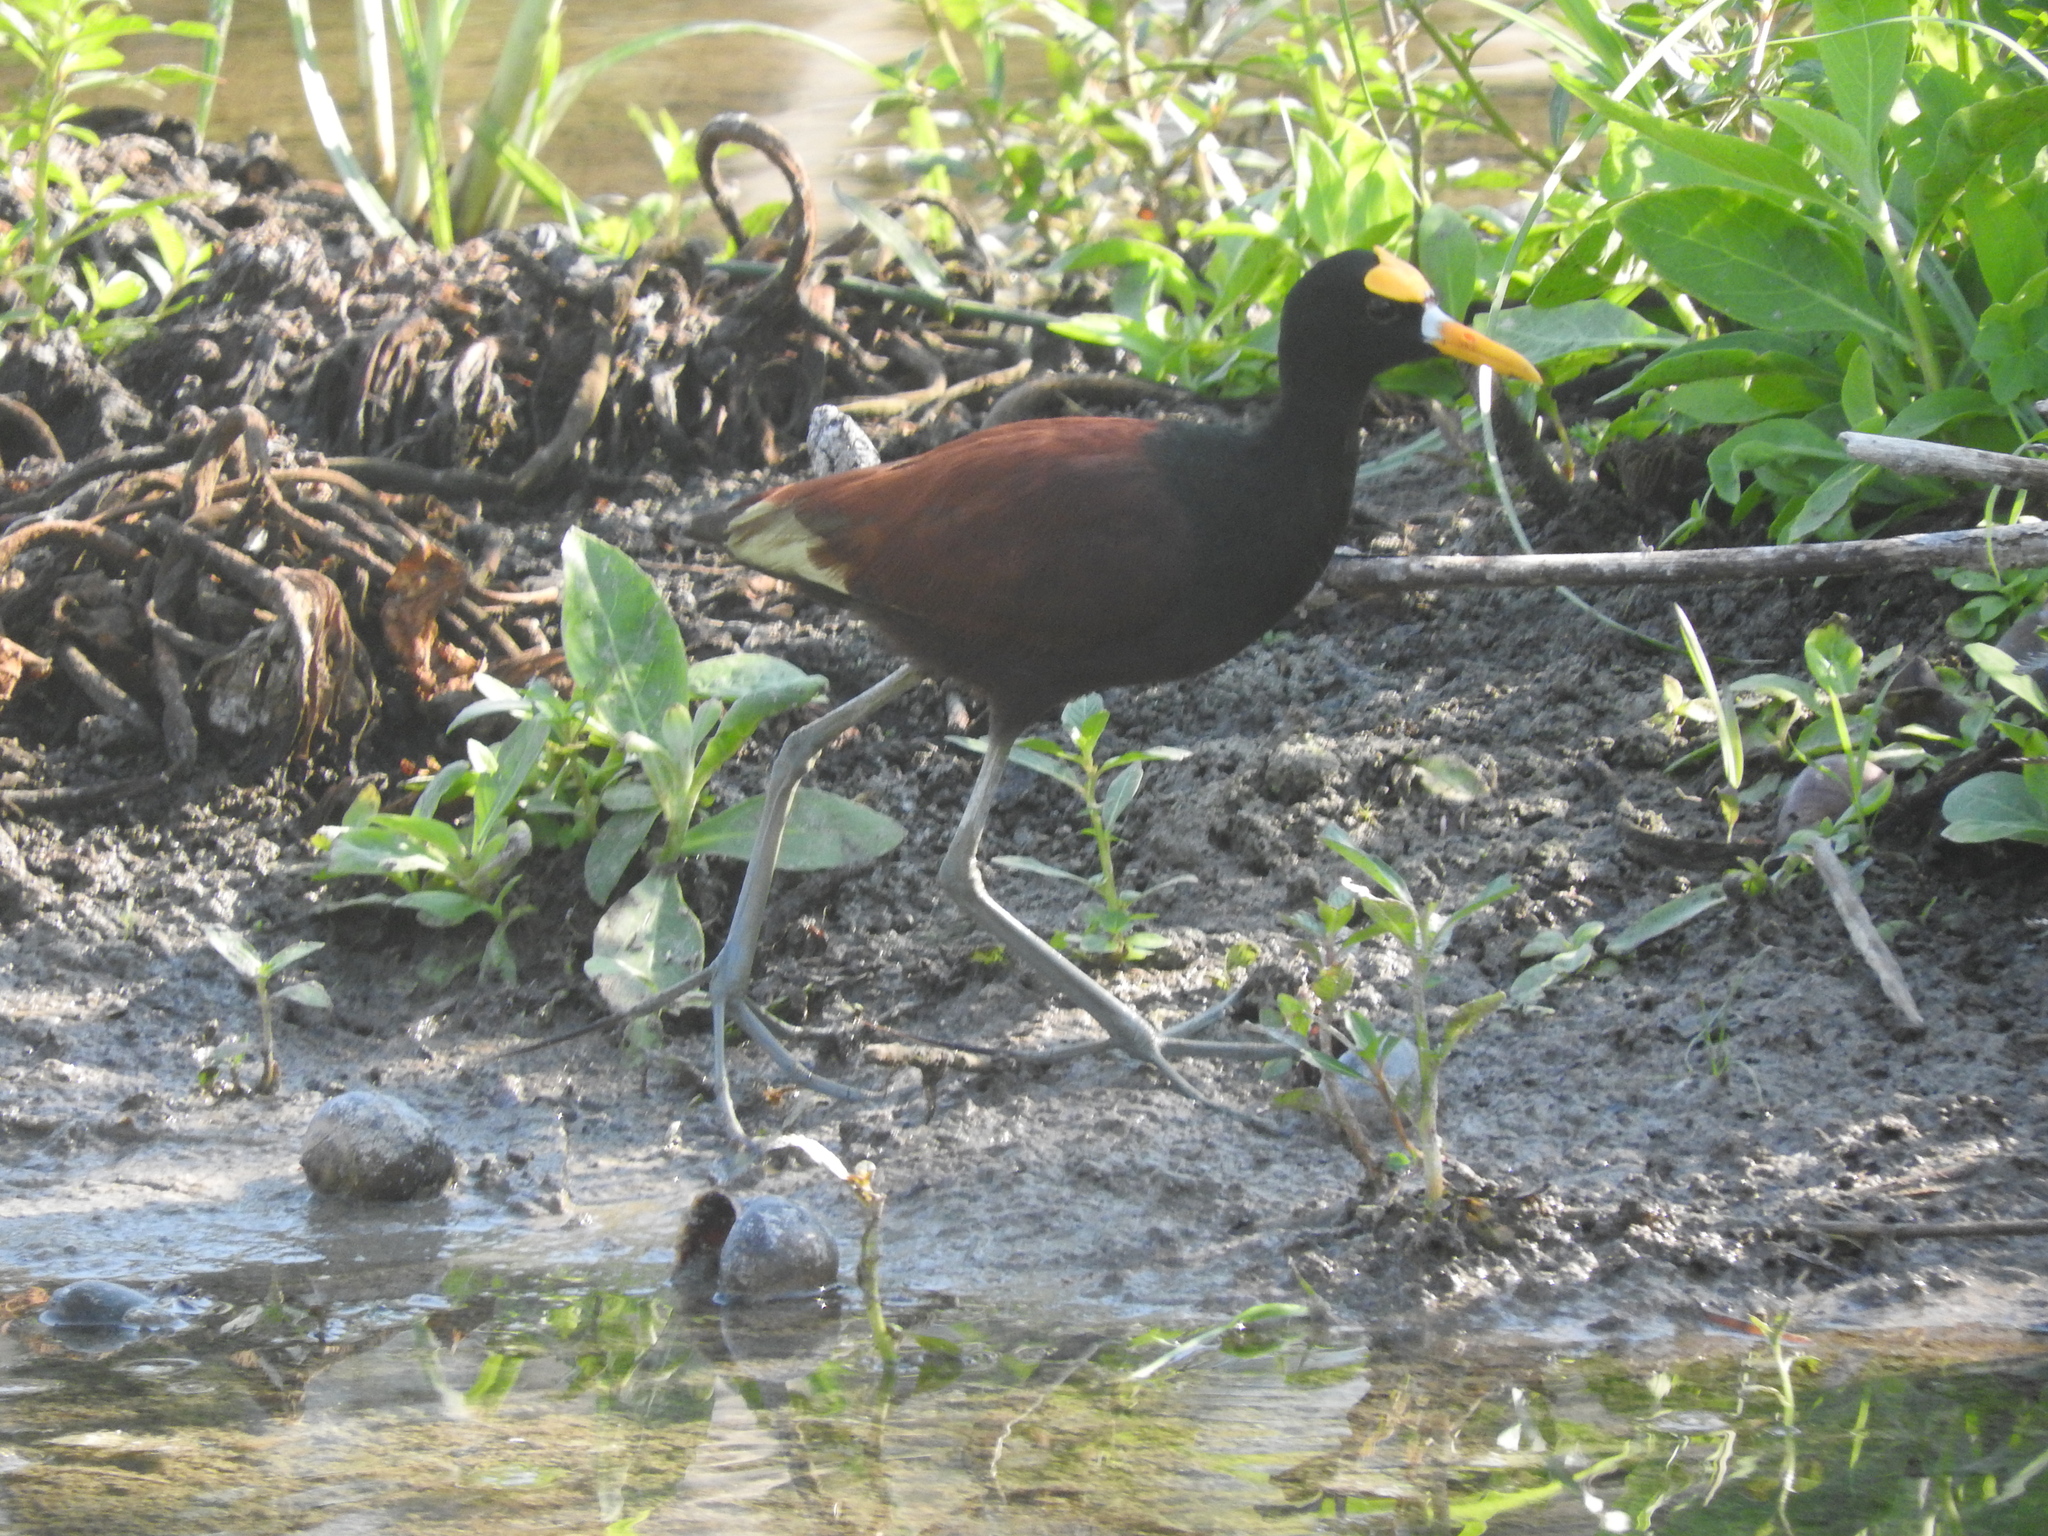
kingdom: Animalia
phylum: Chordata
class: Aves
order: Charadriiformes
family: Jacanidae
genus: Jacana
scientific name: Jacana spinosa
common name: Northern jacana
